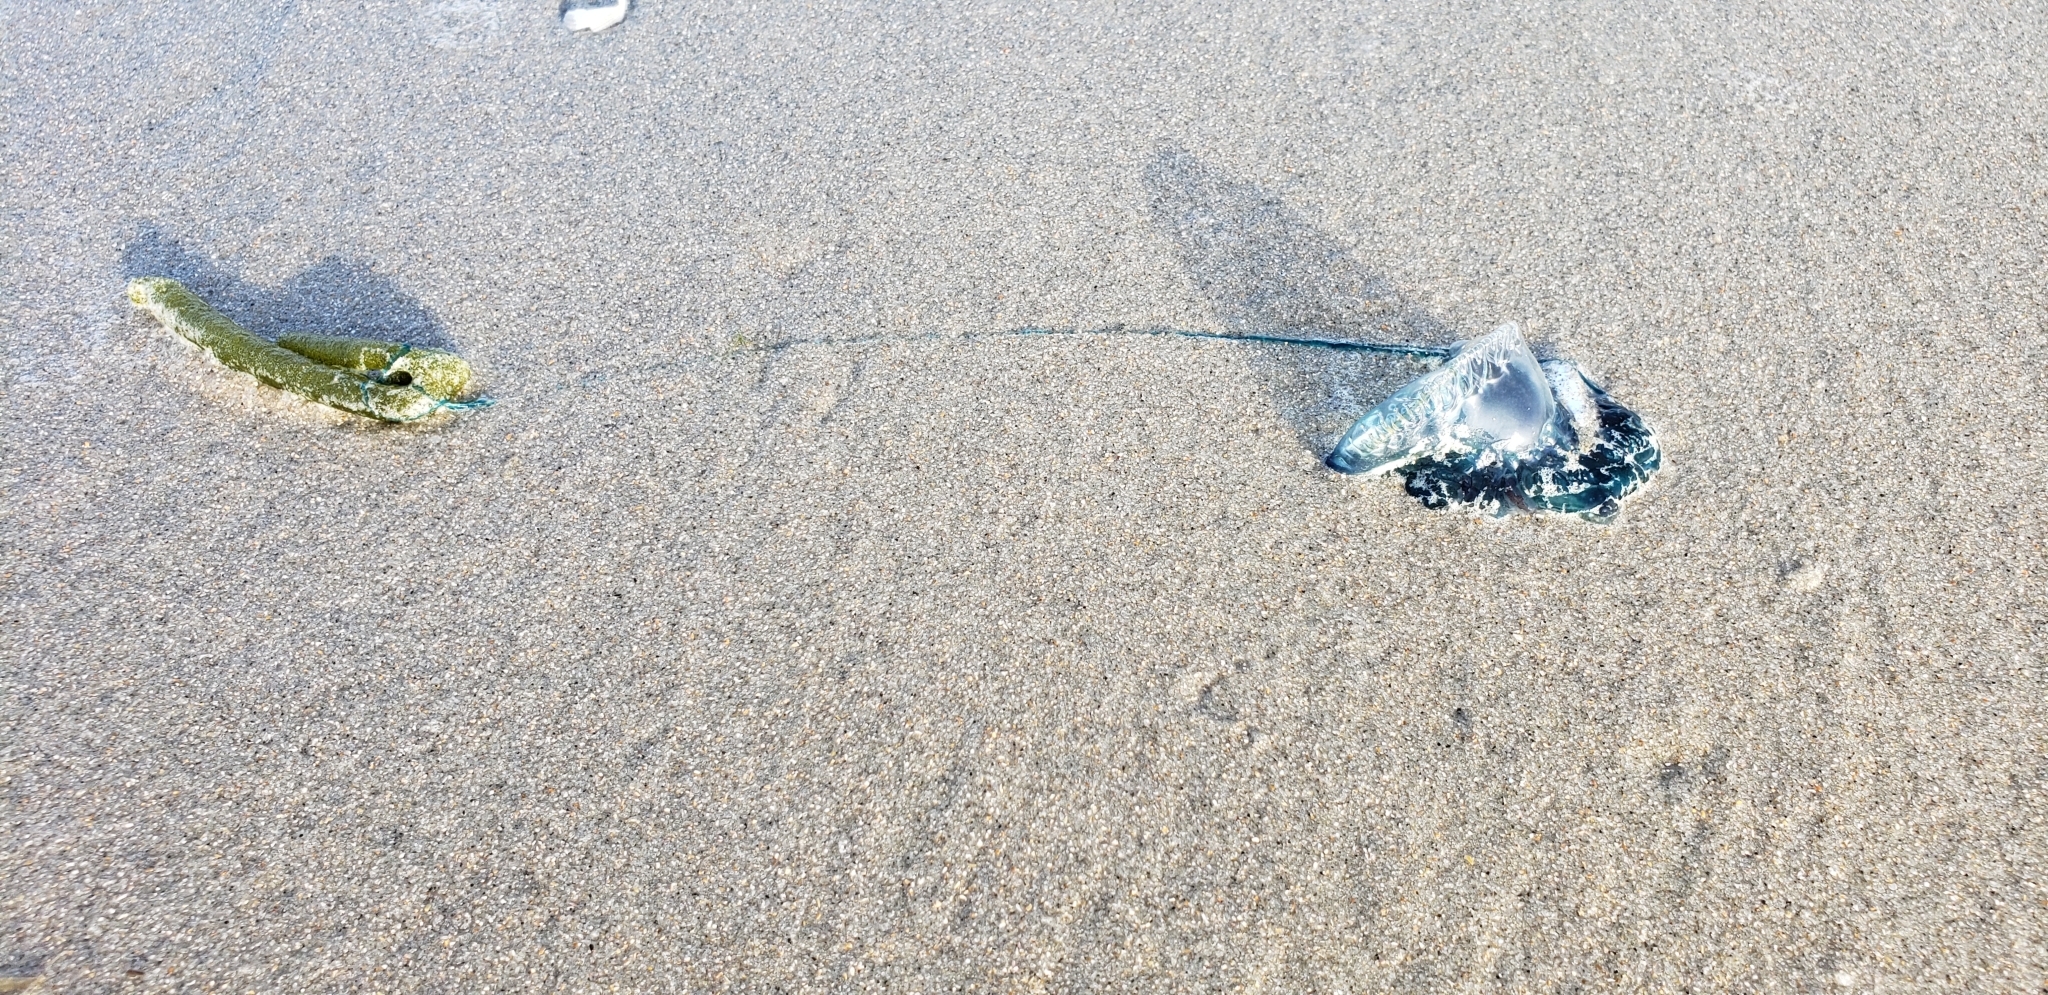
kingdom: Animalia
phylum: Cnidaria
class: Hydrozoa
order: Siphonophorae
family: Physaliidae
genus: Physalia
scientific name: Physalia physalis
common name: Portuguese man-of-war
